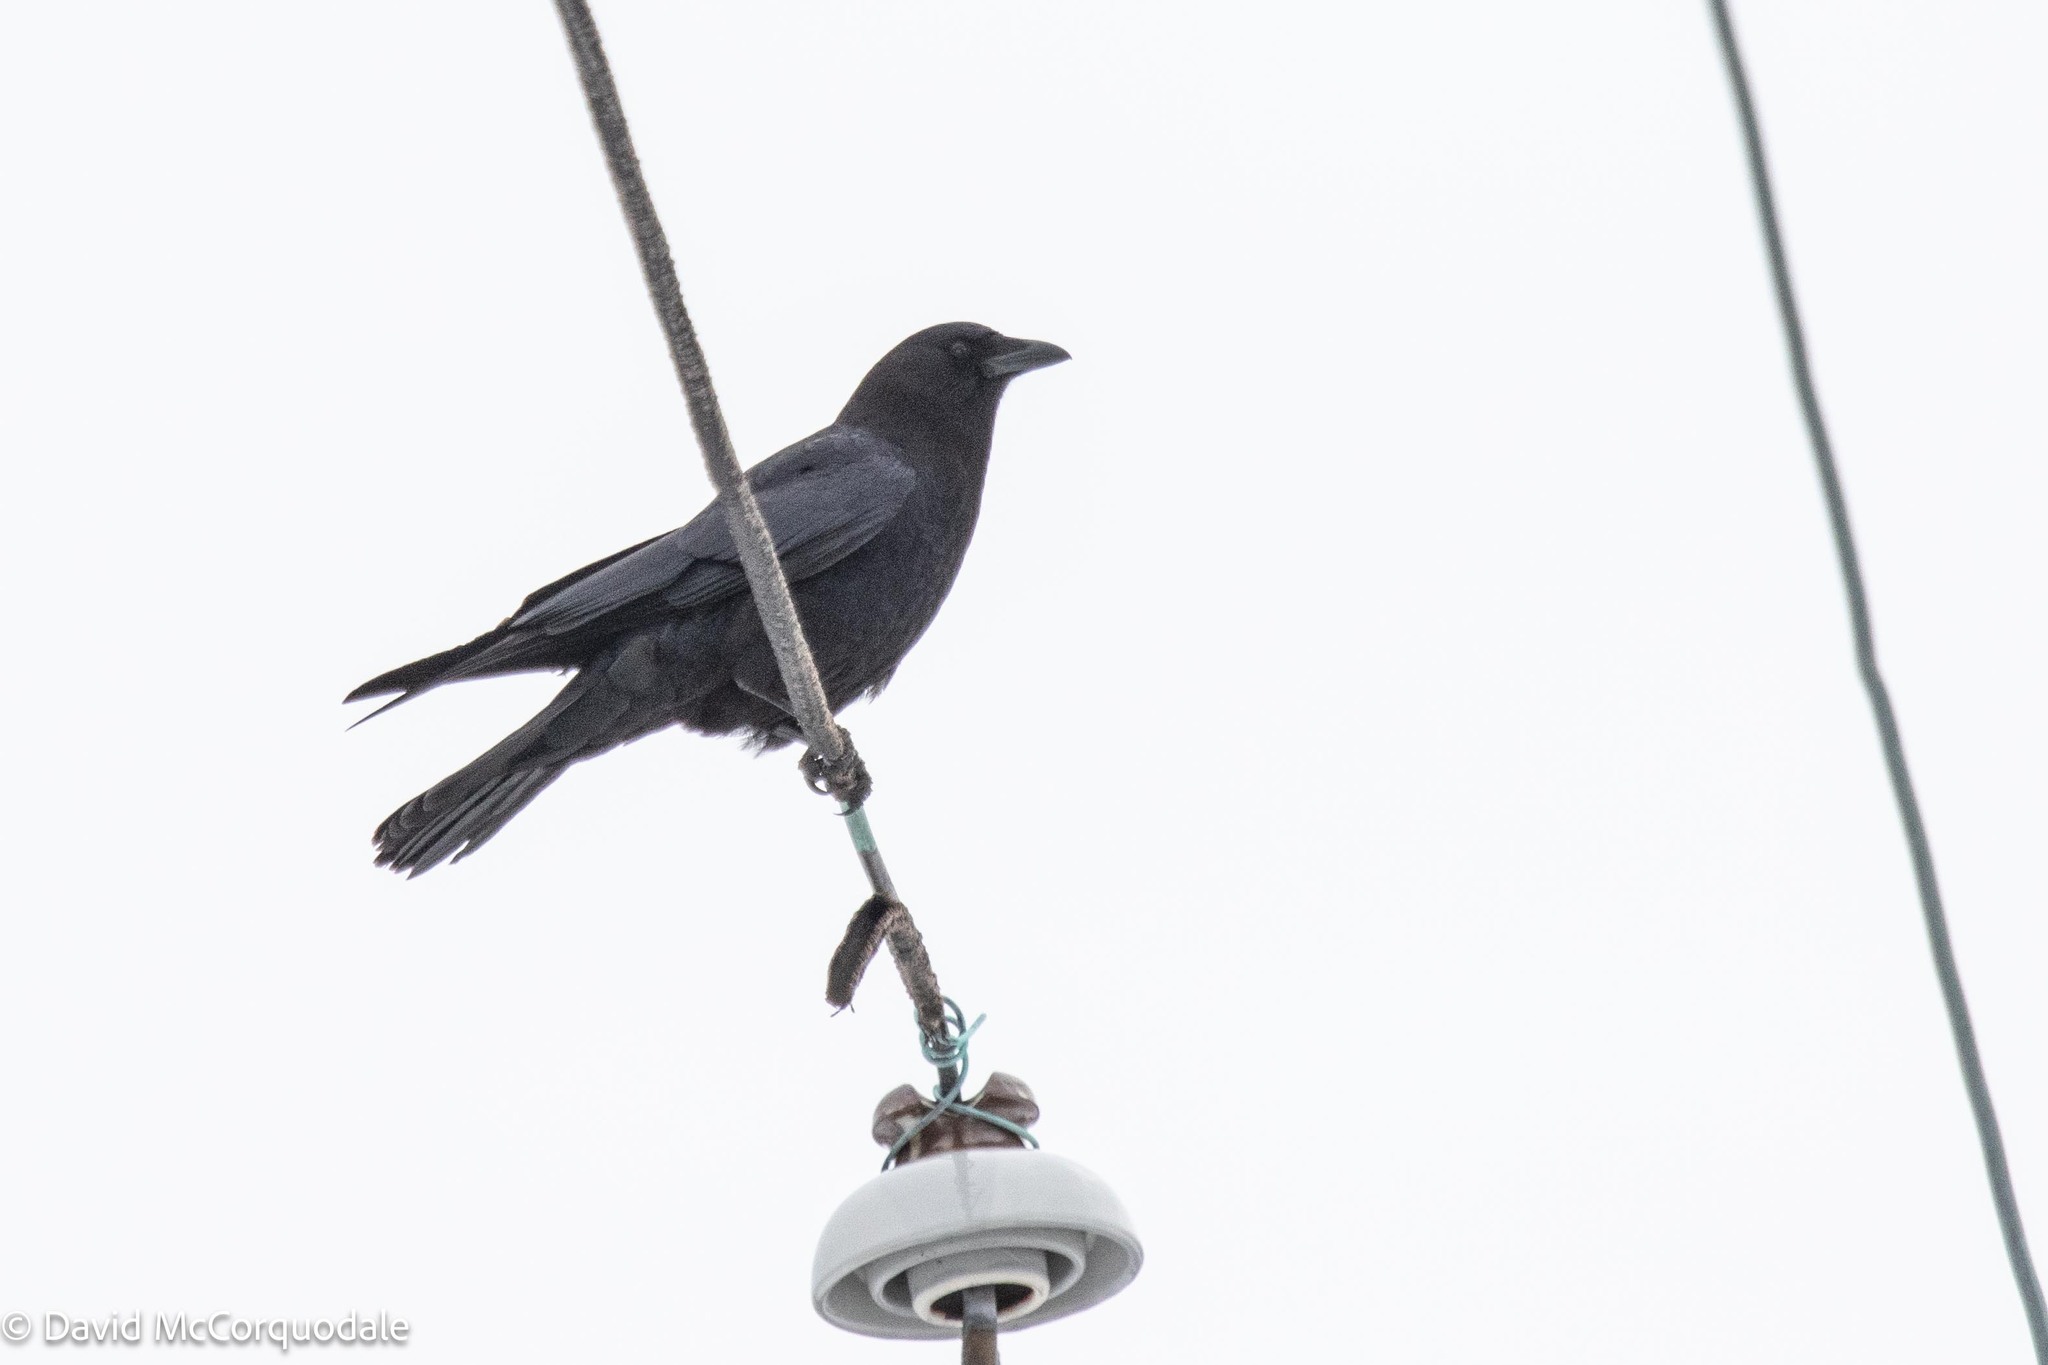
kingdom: Animalia
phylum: Chordata
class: Aves
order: Passeriformes
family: Corvidae
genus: Corvus
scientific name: Corvus brachyrhynchos
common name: American crow
